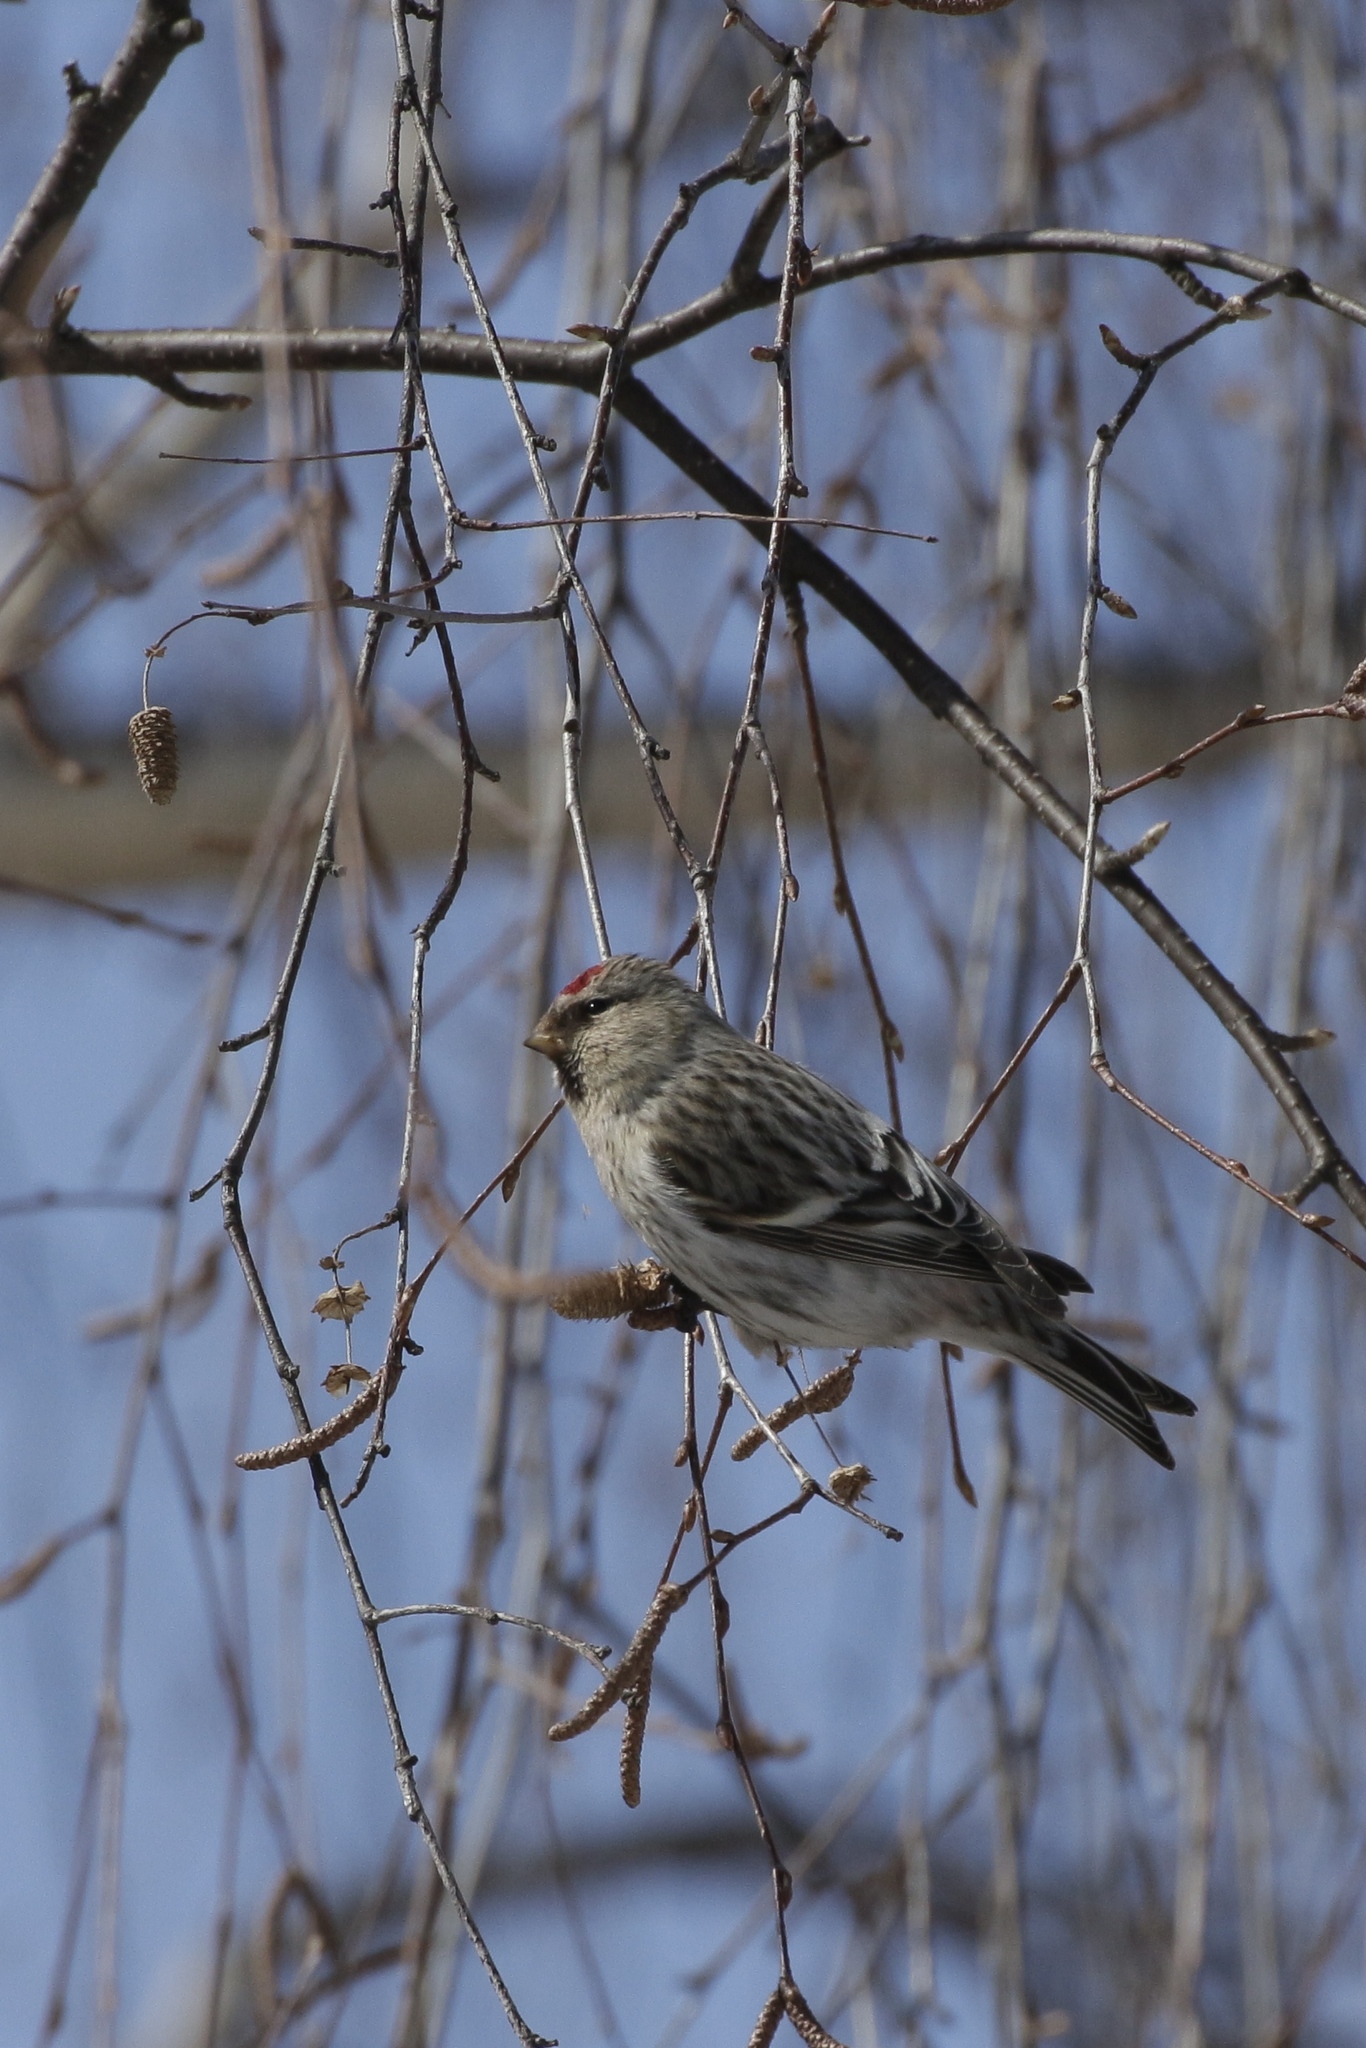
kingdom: Animalia
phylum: Chordata
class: Aves
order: Passeriformes
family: Fringillidae
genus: Acanthis
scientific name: Acanthis flammea
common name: Common redpoll
